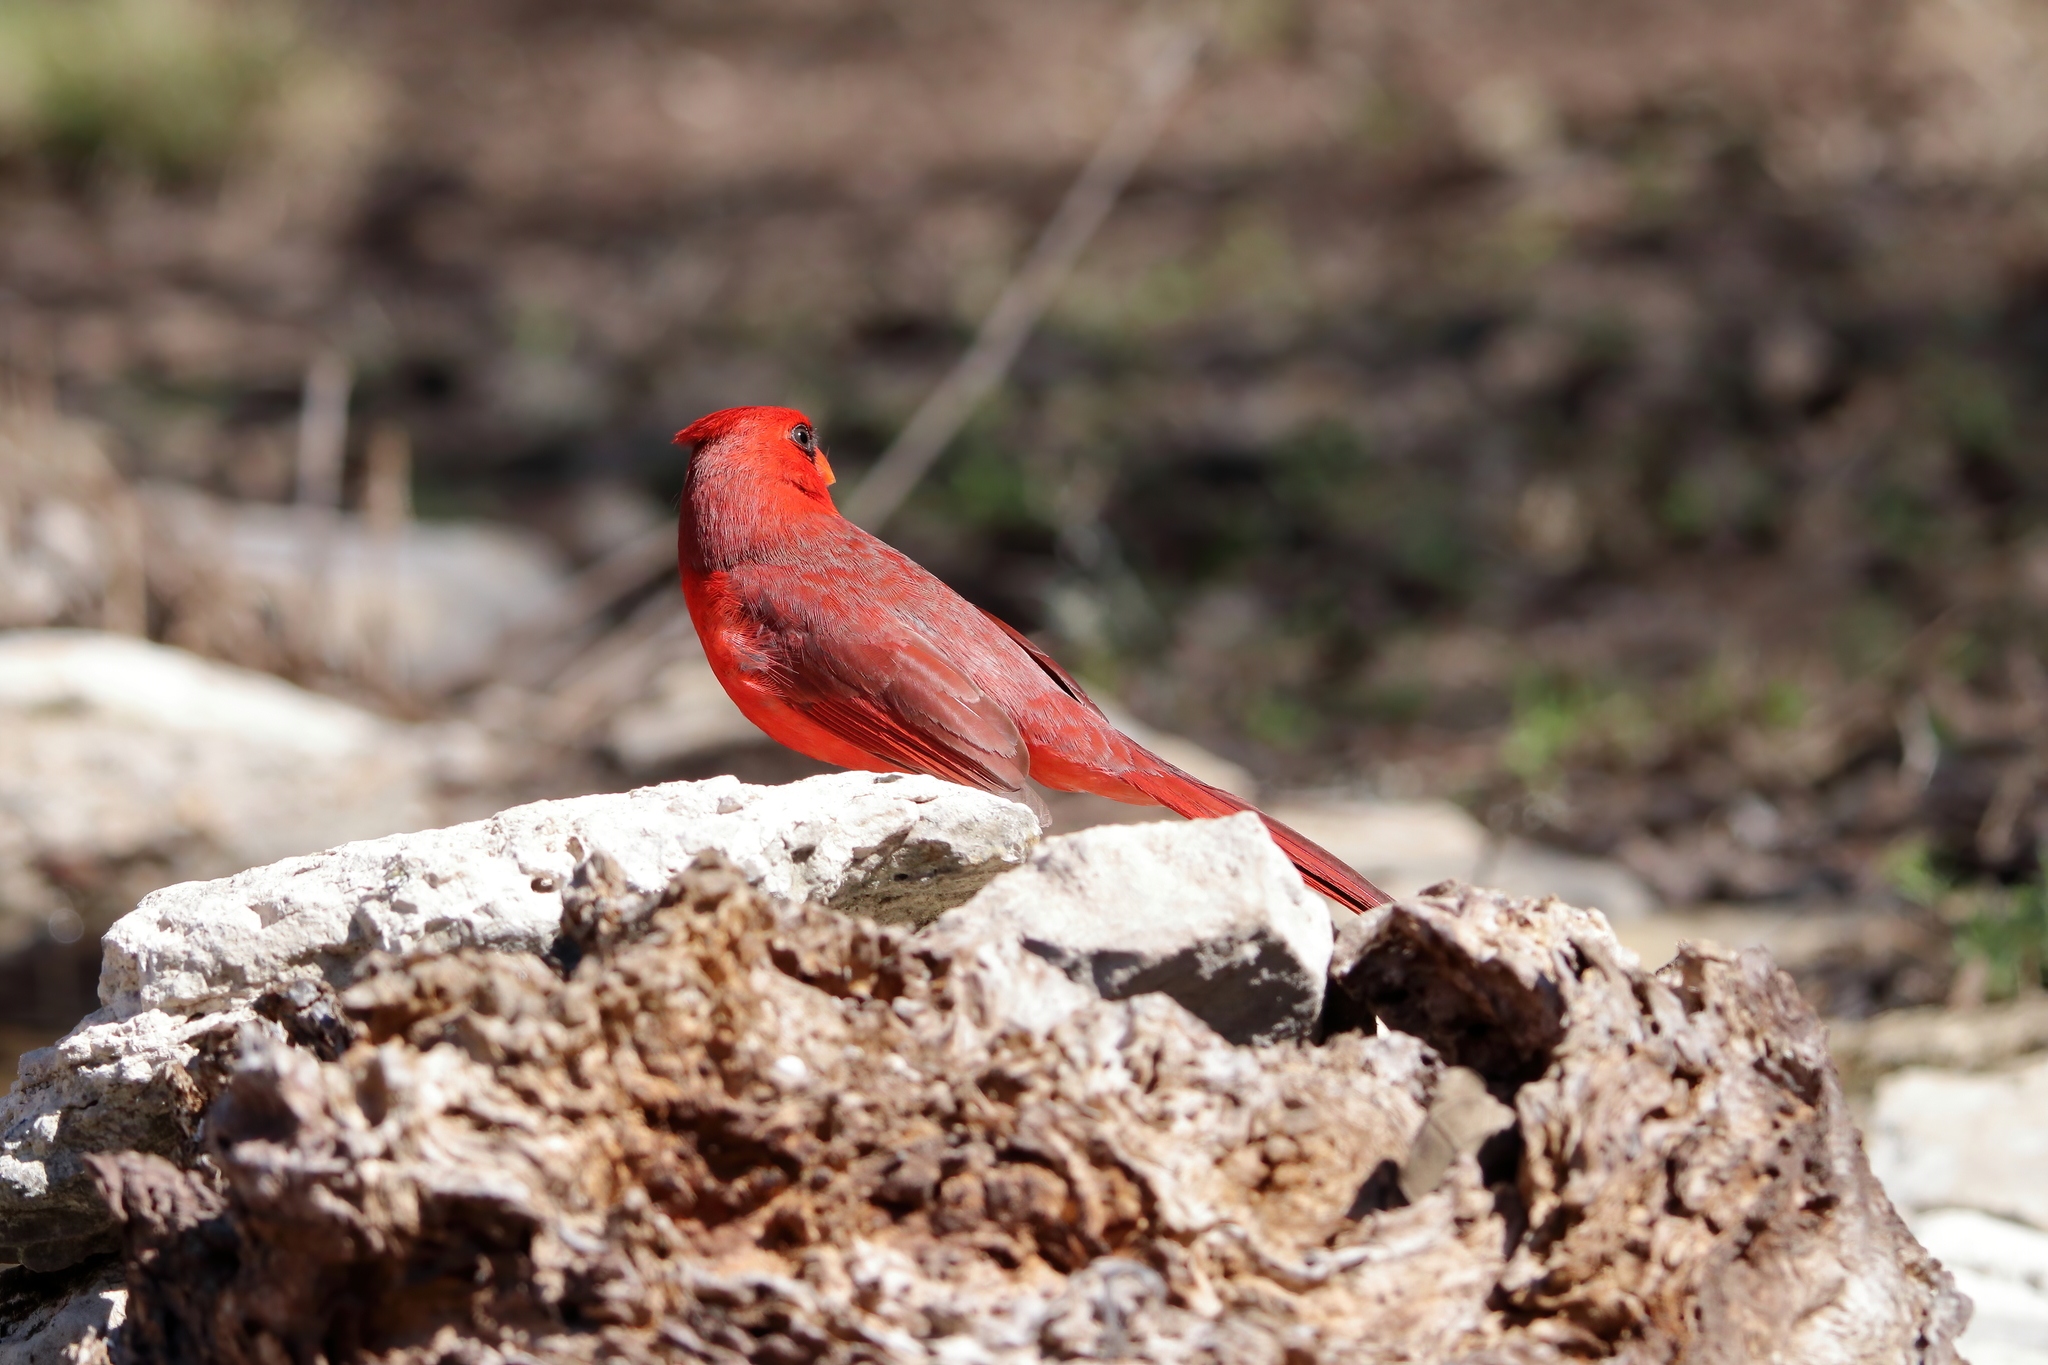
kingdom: Animalia
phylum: Chordata
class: Aves
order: Passeriformes
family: Cardinalidae
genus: Cardinalis
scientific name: Cardinalis cardinalis
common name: Northern cardinal
